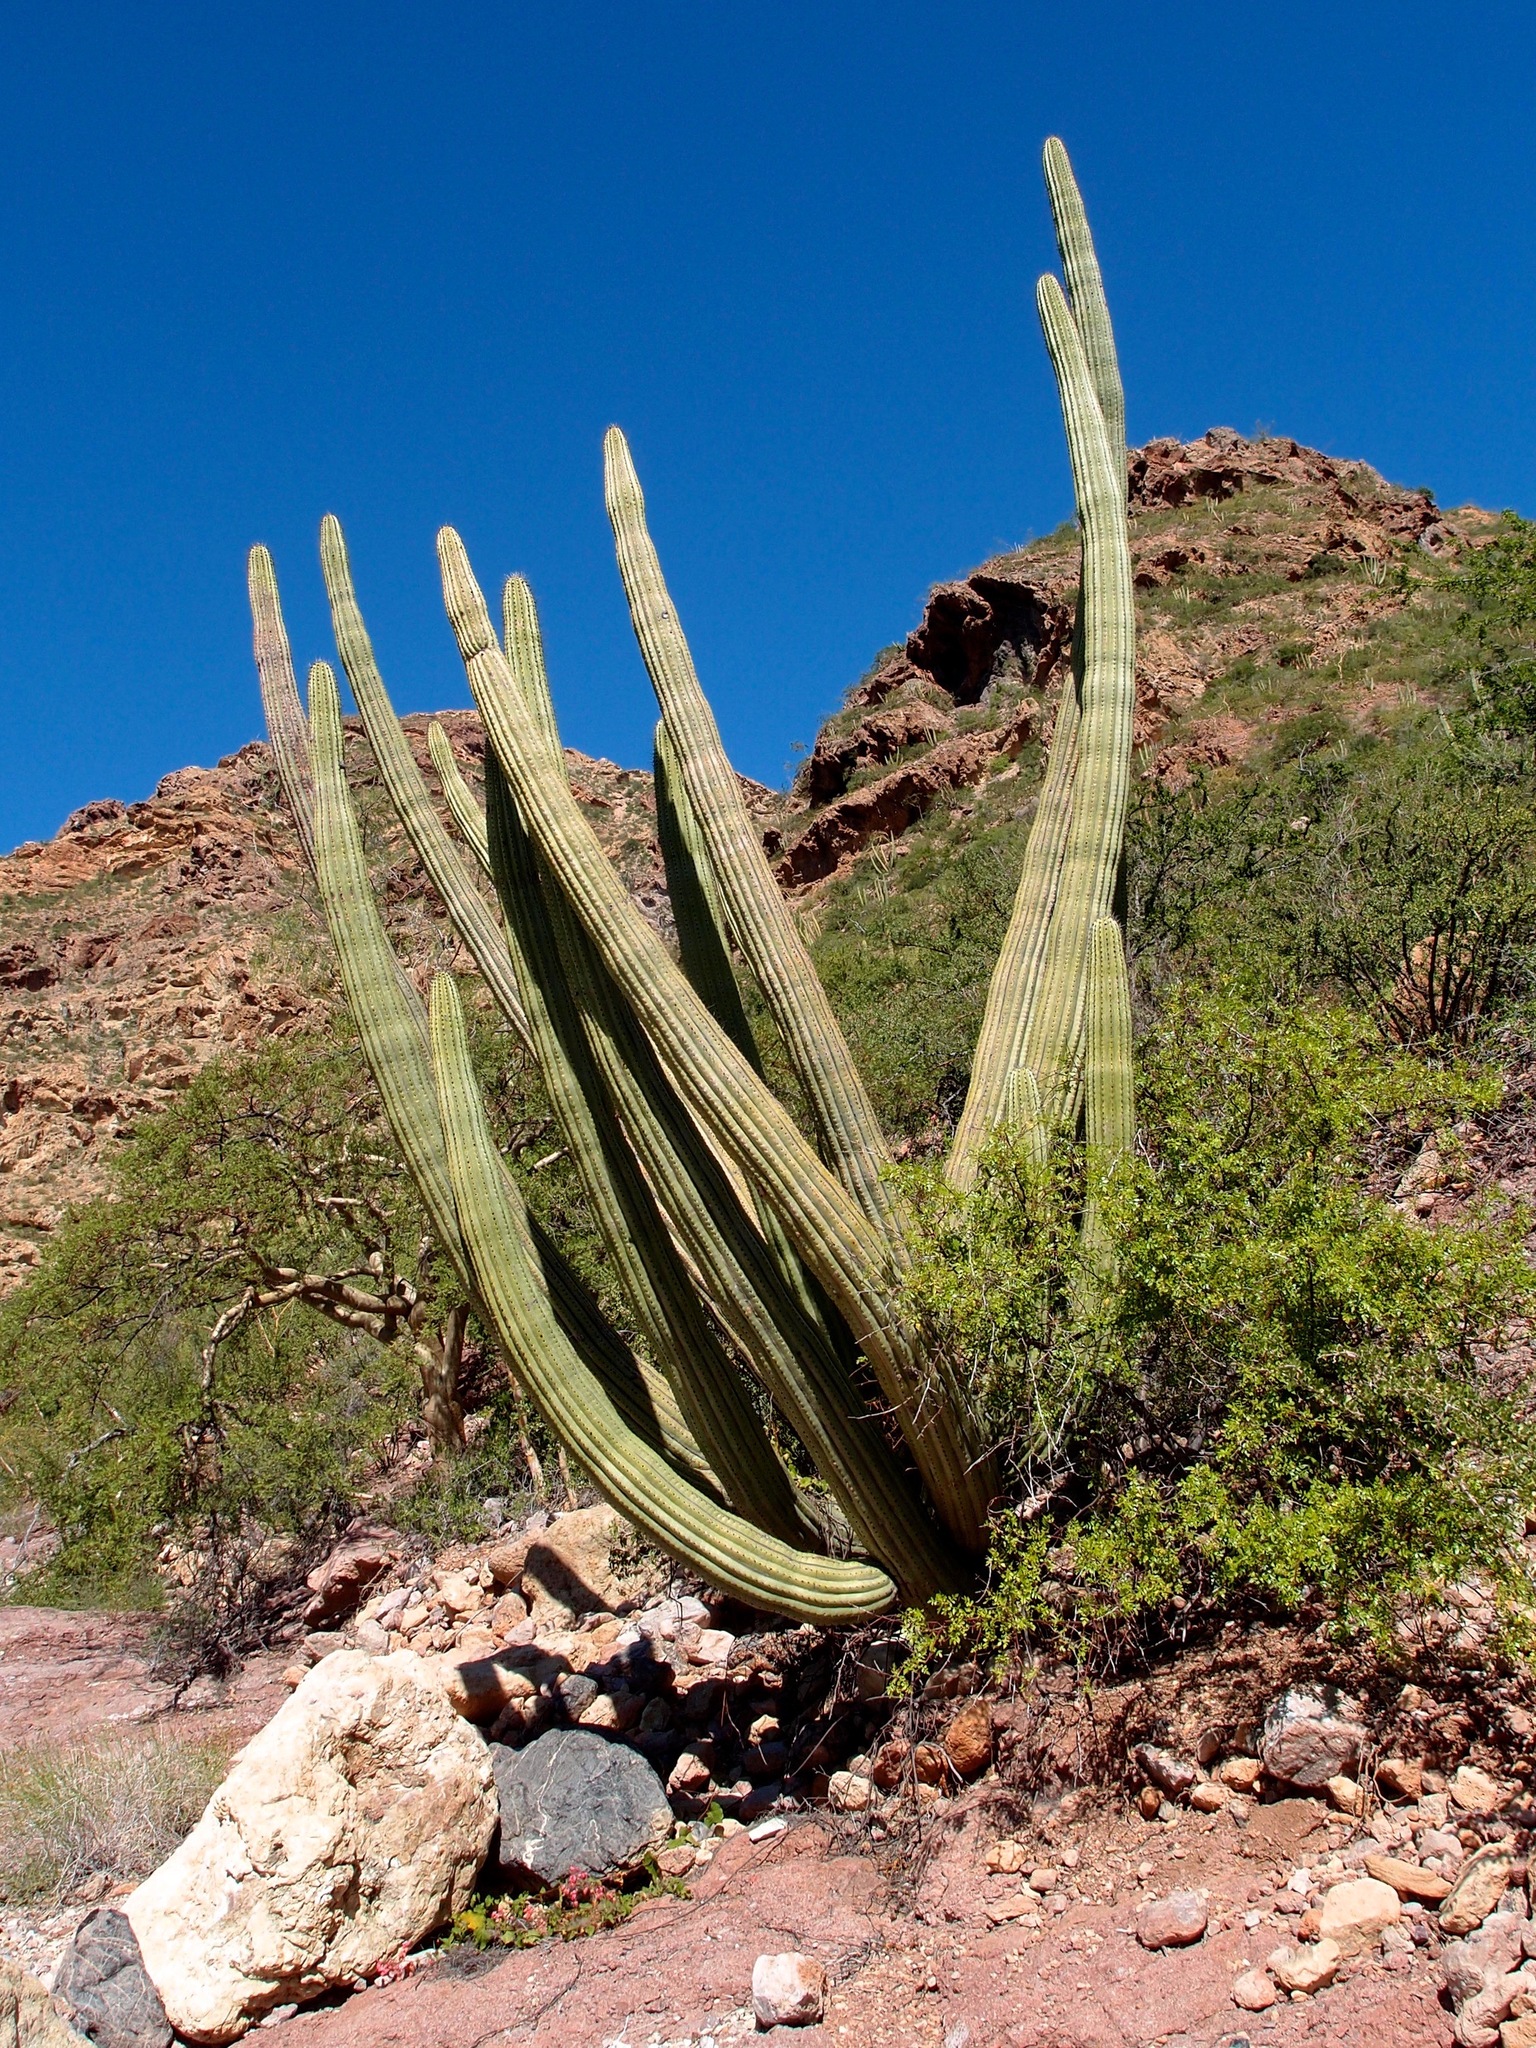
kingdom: Plantae
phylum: Tracheophyta
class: Magnoliopsida
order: Caryophyllales
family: Cactaceae
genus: Stenocereus
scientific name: Stenocereus thurberi
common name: Organ pipe cactus
